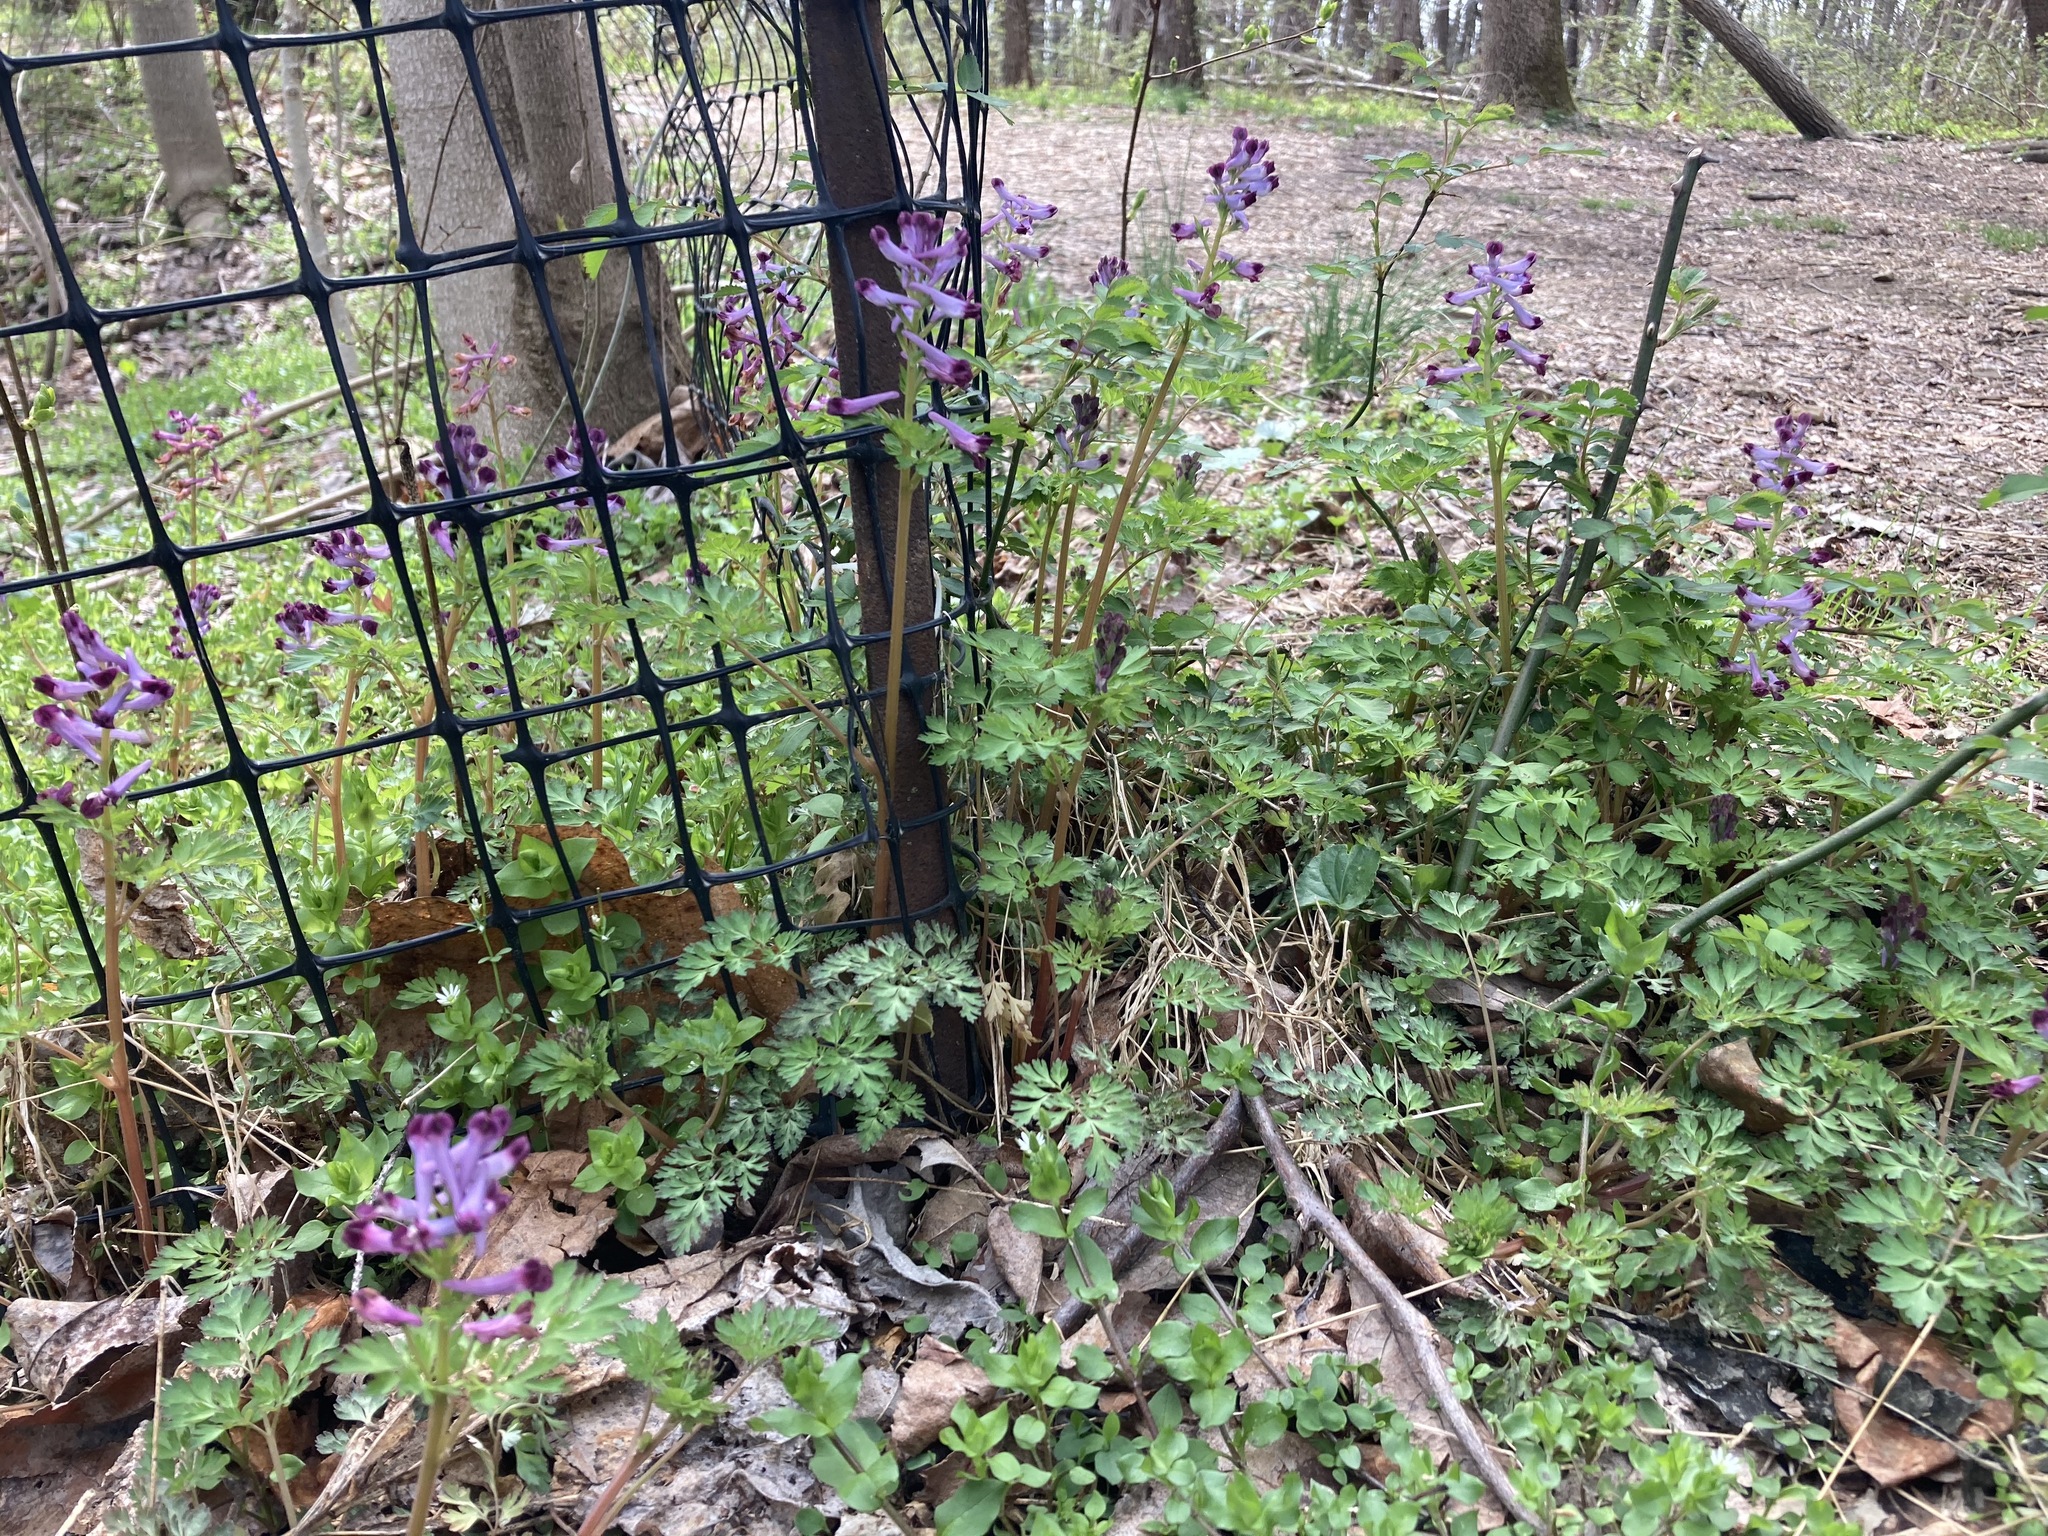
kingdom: Plantae
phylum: Tracheophyta
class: Magnoliopsida
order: Ranunculales
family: Papaveraceae
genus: Corydalis
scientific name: Corydalis incisa
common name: Incised fumewort
